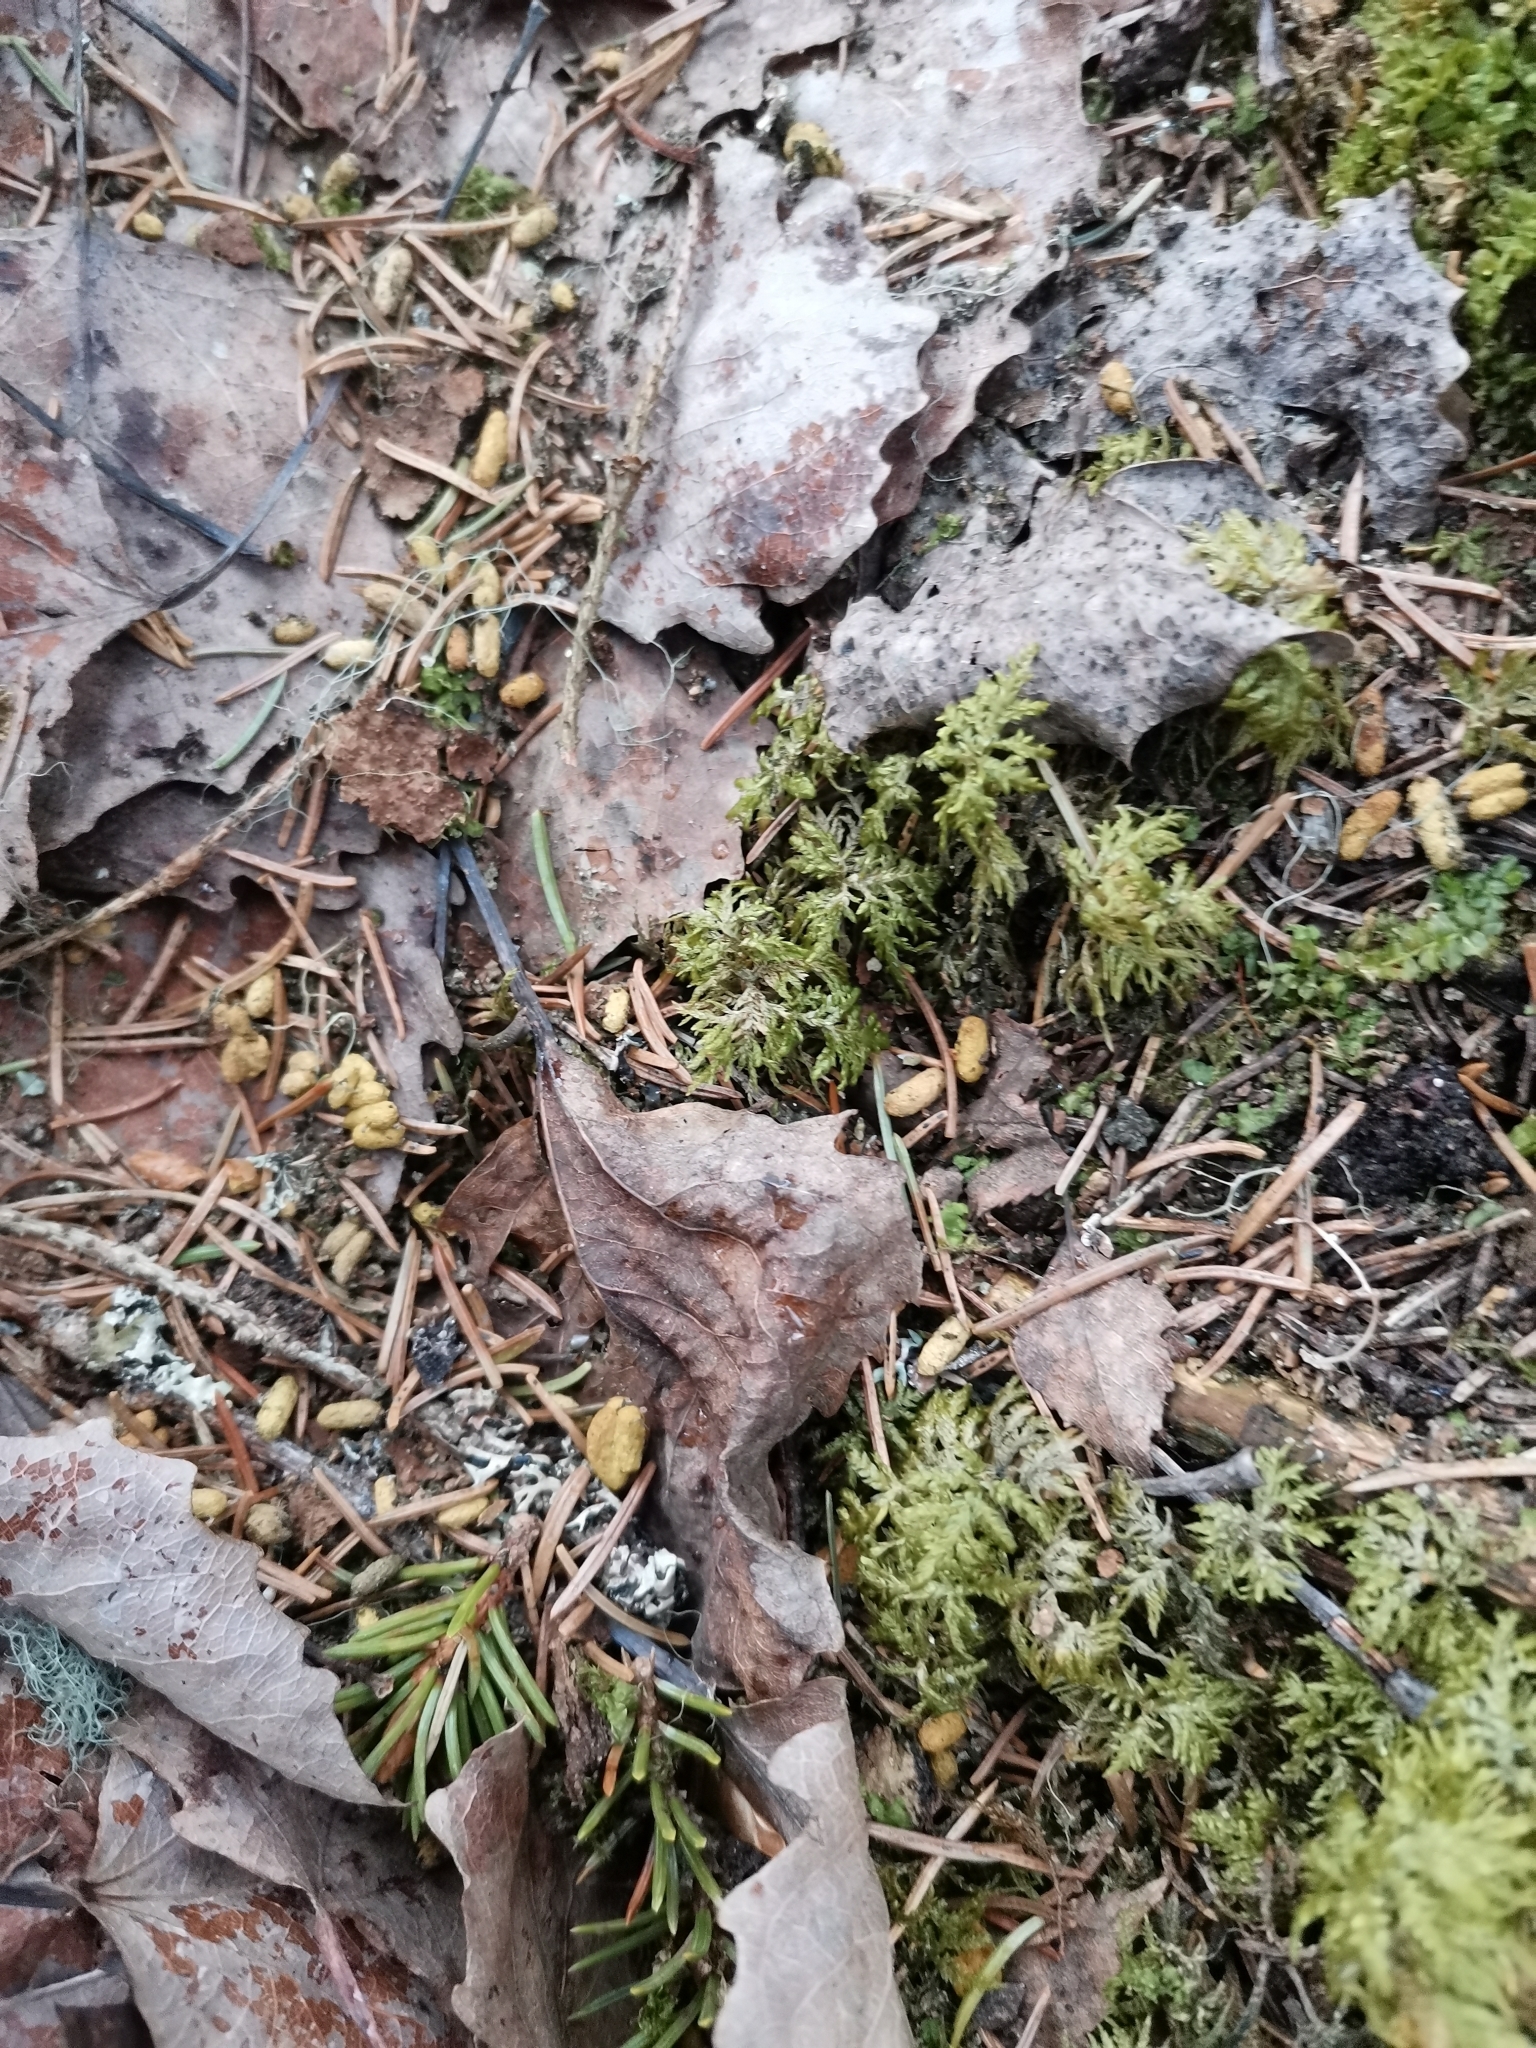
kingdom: Animalia
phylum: Chordata
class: Mammalia
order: Rodentia
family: Sciuridae
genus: Pteromys
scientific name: Pteromys volans
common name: Siberian flying squirrel
